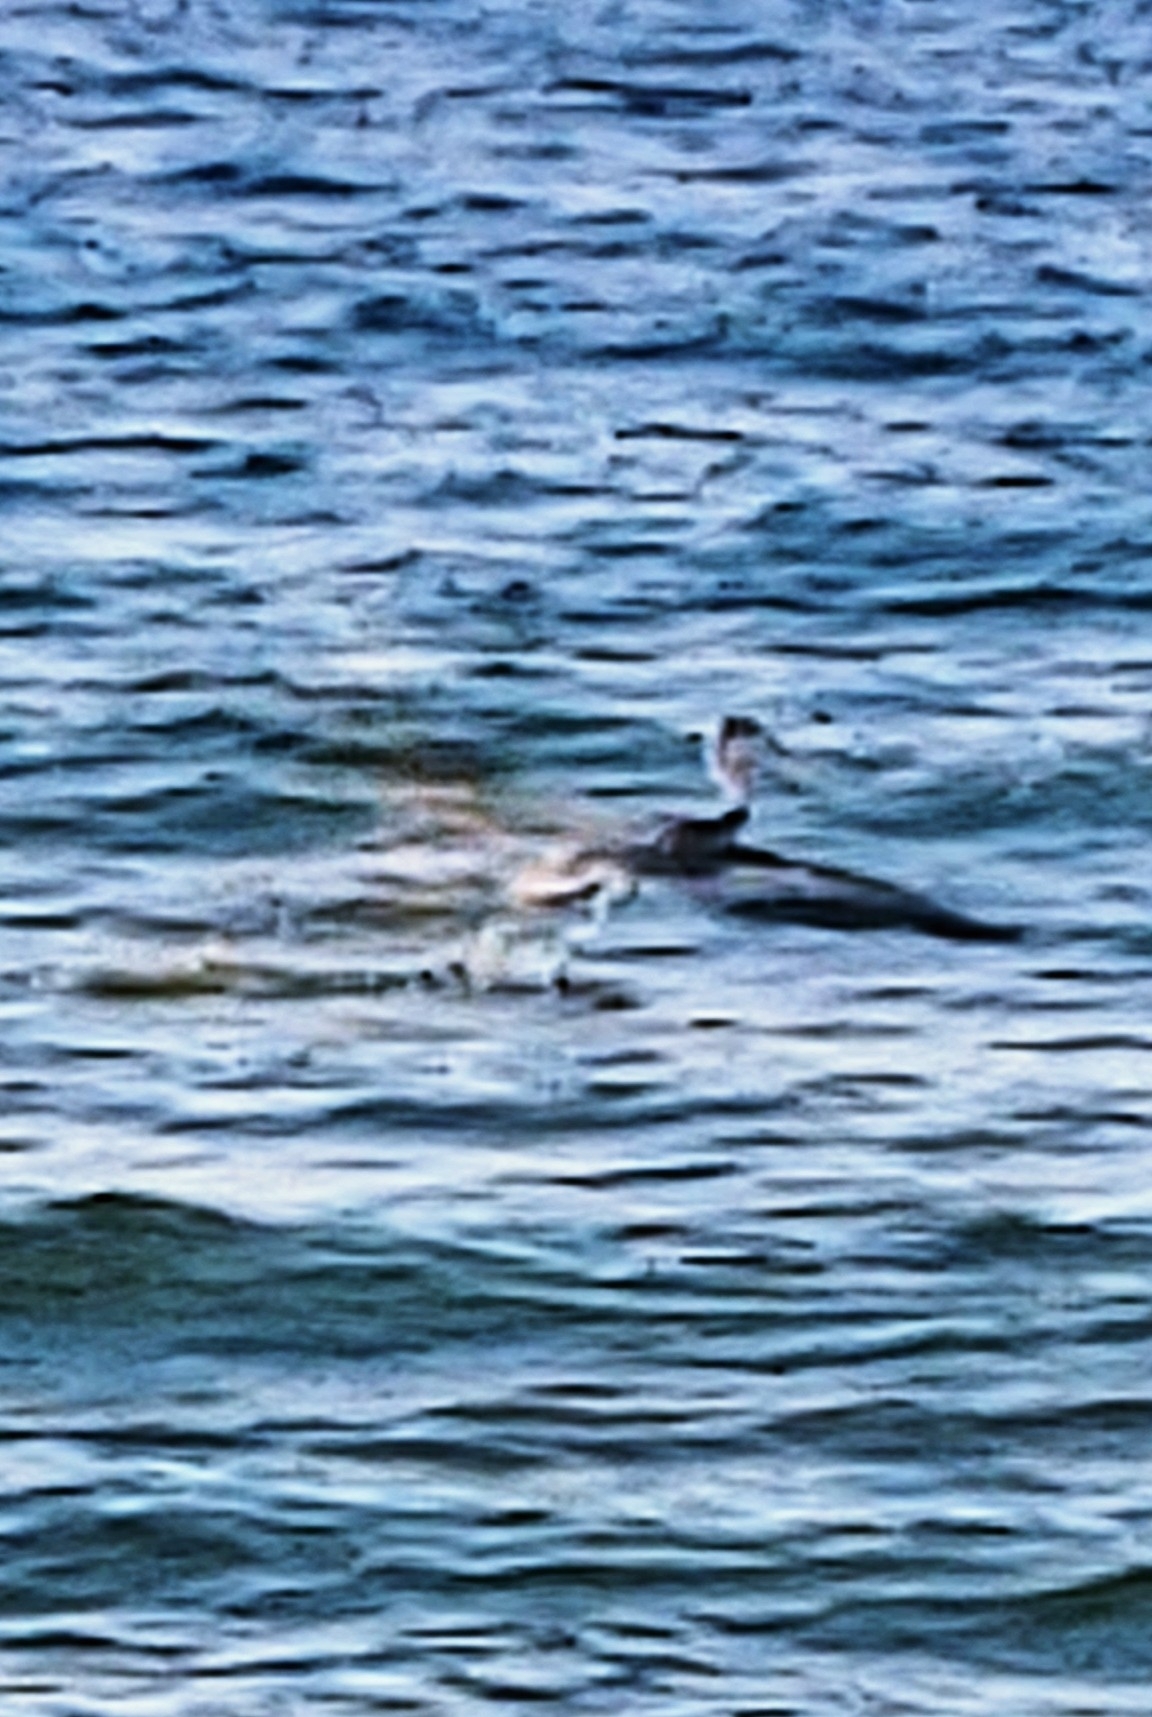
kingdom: Animalia
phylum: Chordata
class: Aves
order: Pelecaniformes
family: Pelecanidae
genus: Pelecanus
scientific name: Pelecanus occidentalis
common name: Brown pelican
